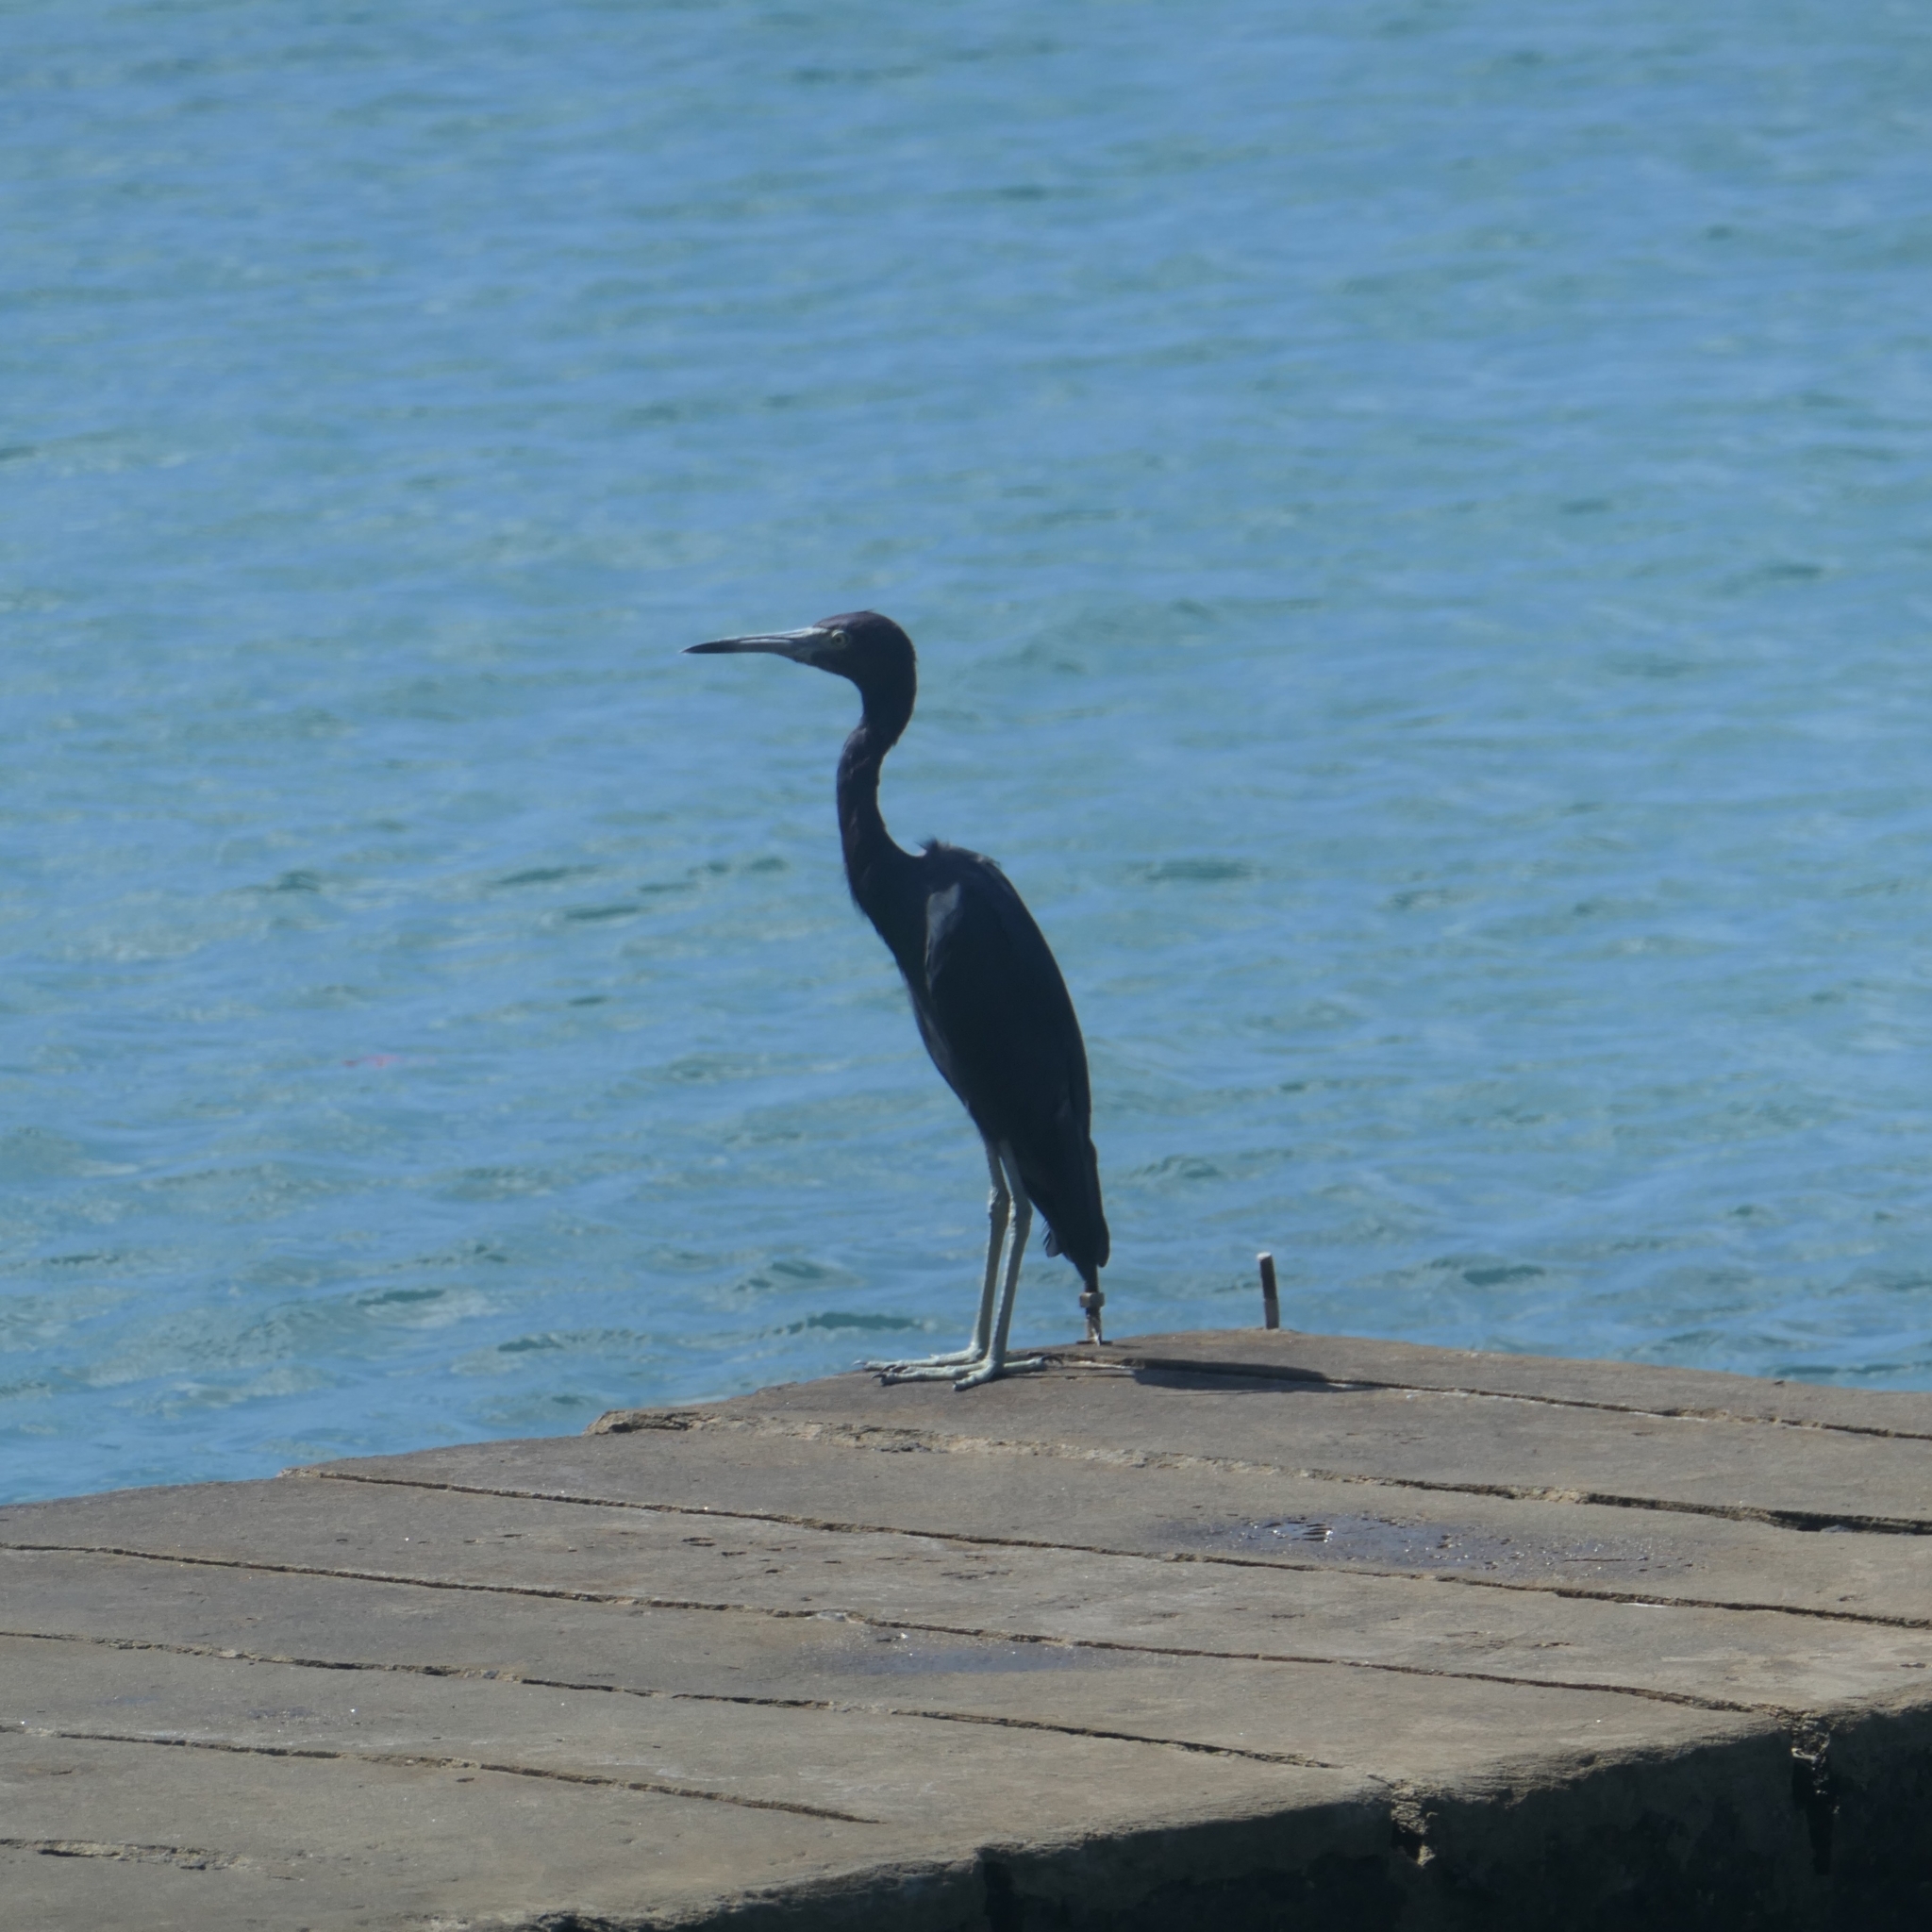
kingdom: Animalia
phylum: Chordata
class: Aves
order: Pelecaniformes
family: Ardeidae
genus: Egretta
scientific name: Egretta caerulea
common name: Little blue heron
